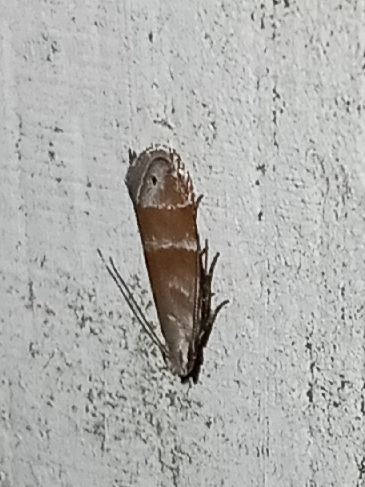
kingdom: Animalia
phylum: Arthropoda
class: Insecta
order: Lepidoptera
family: Gelechiidae
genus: Battaristis
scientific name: Battaristis vittella
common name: Orange stripe-backed moth
